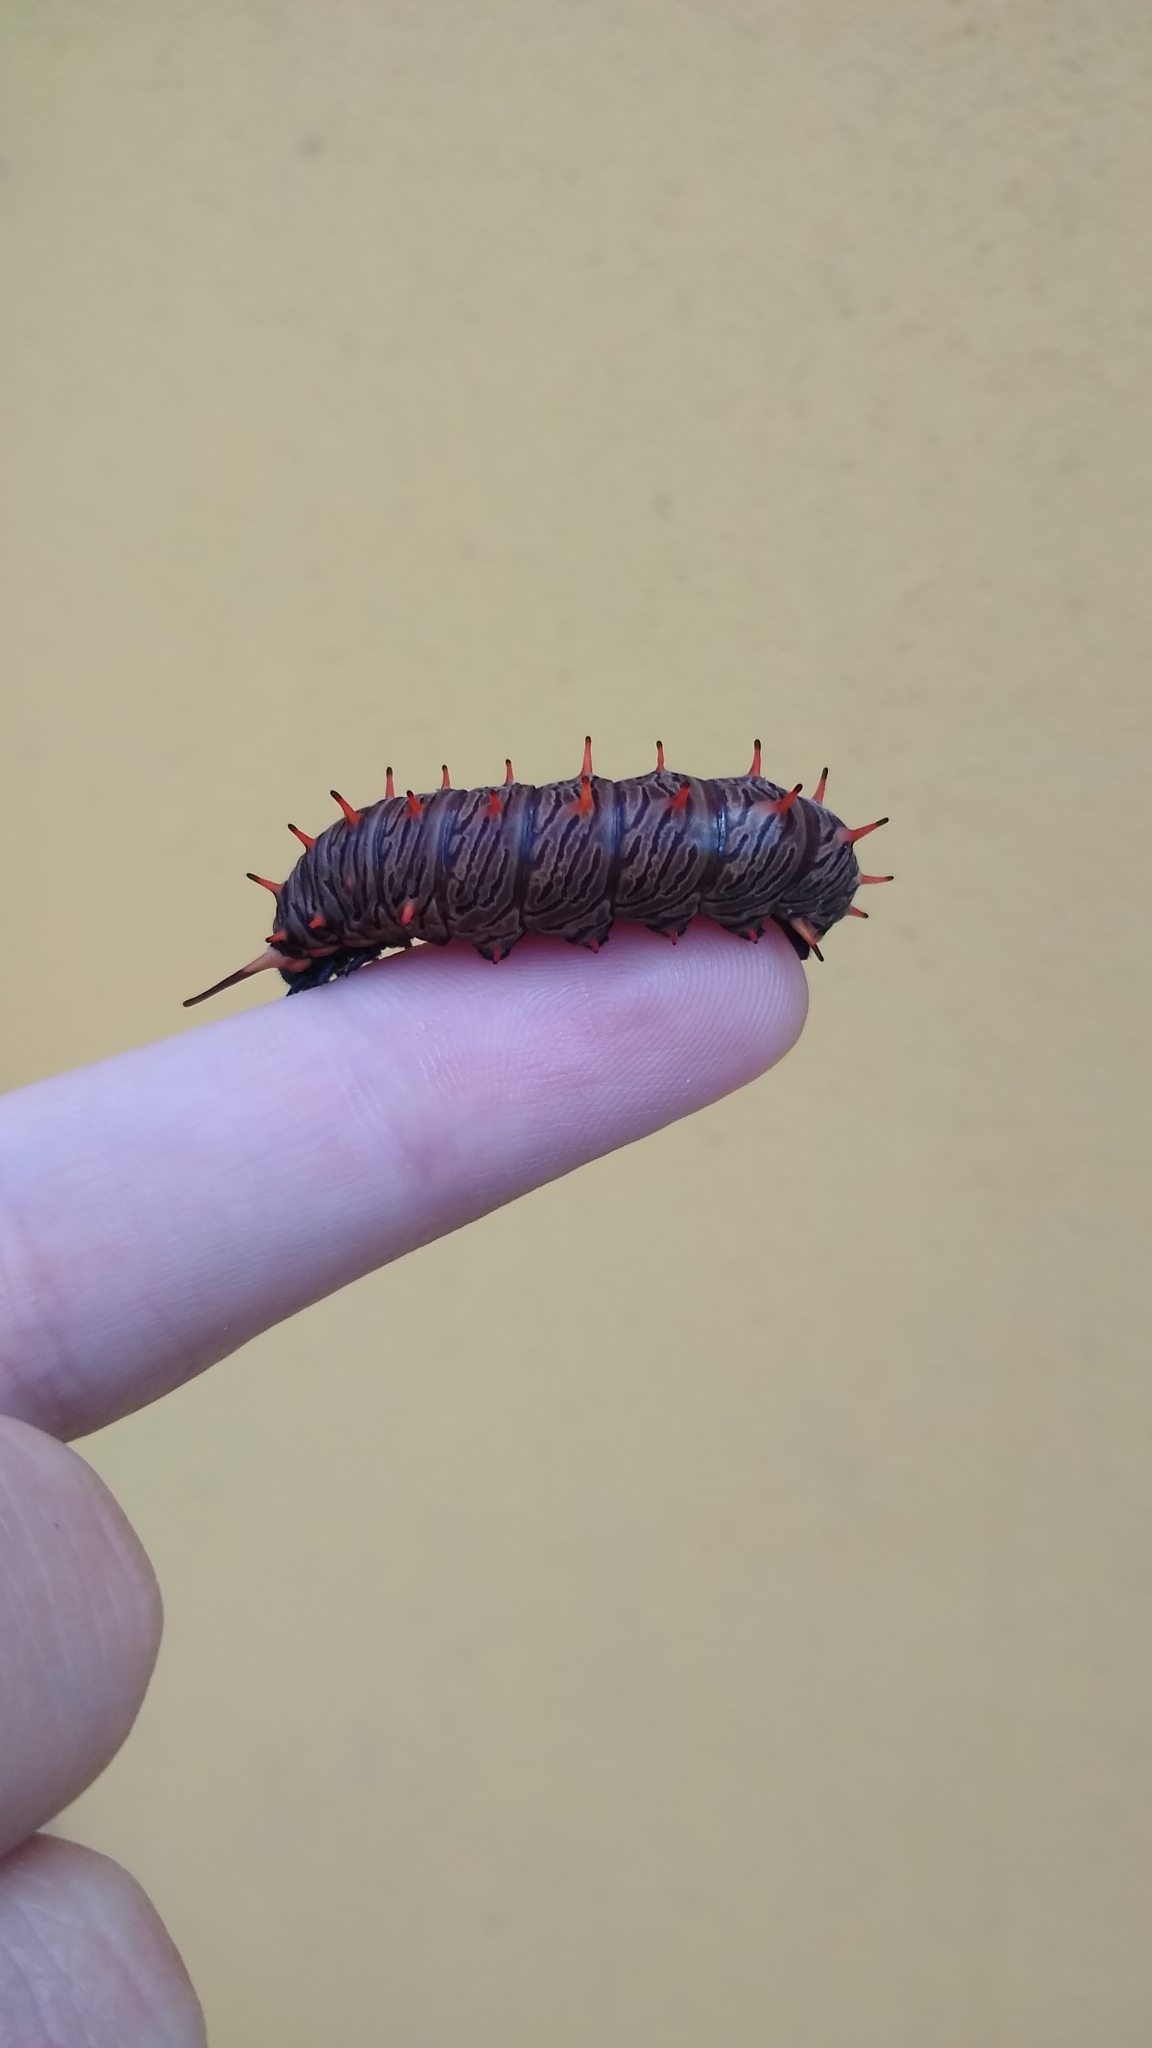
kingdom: Animalia
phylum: Arthropoda
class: Insecta
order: Lepidoptera
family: Papilionidae
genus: Battus
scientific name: Battus polydamas
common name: Polydamas swallowtail
